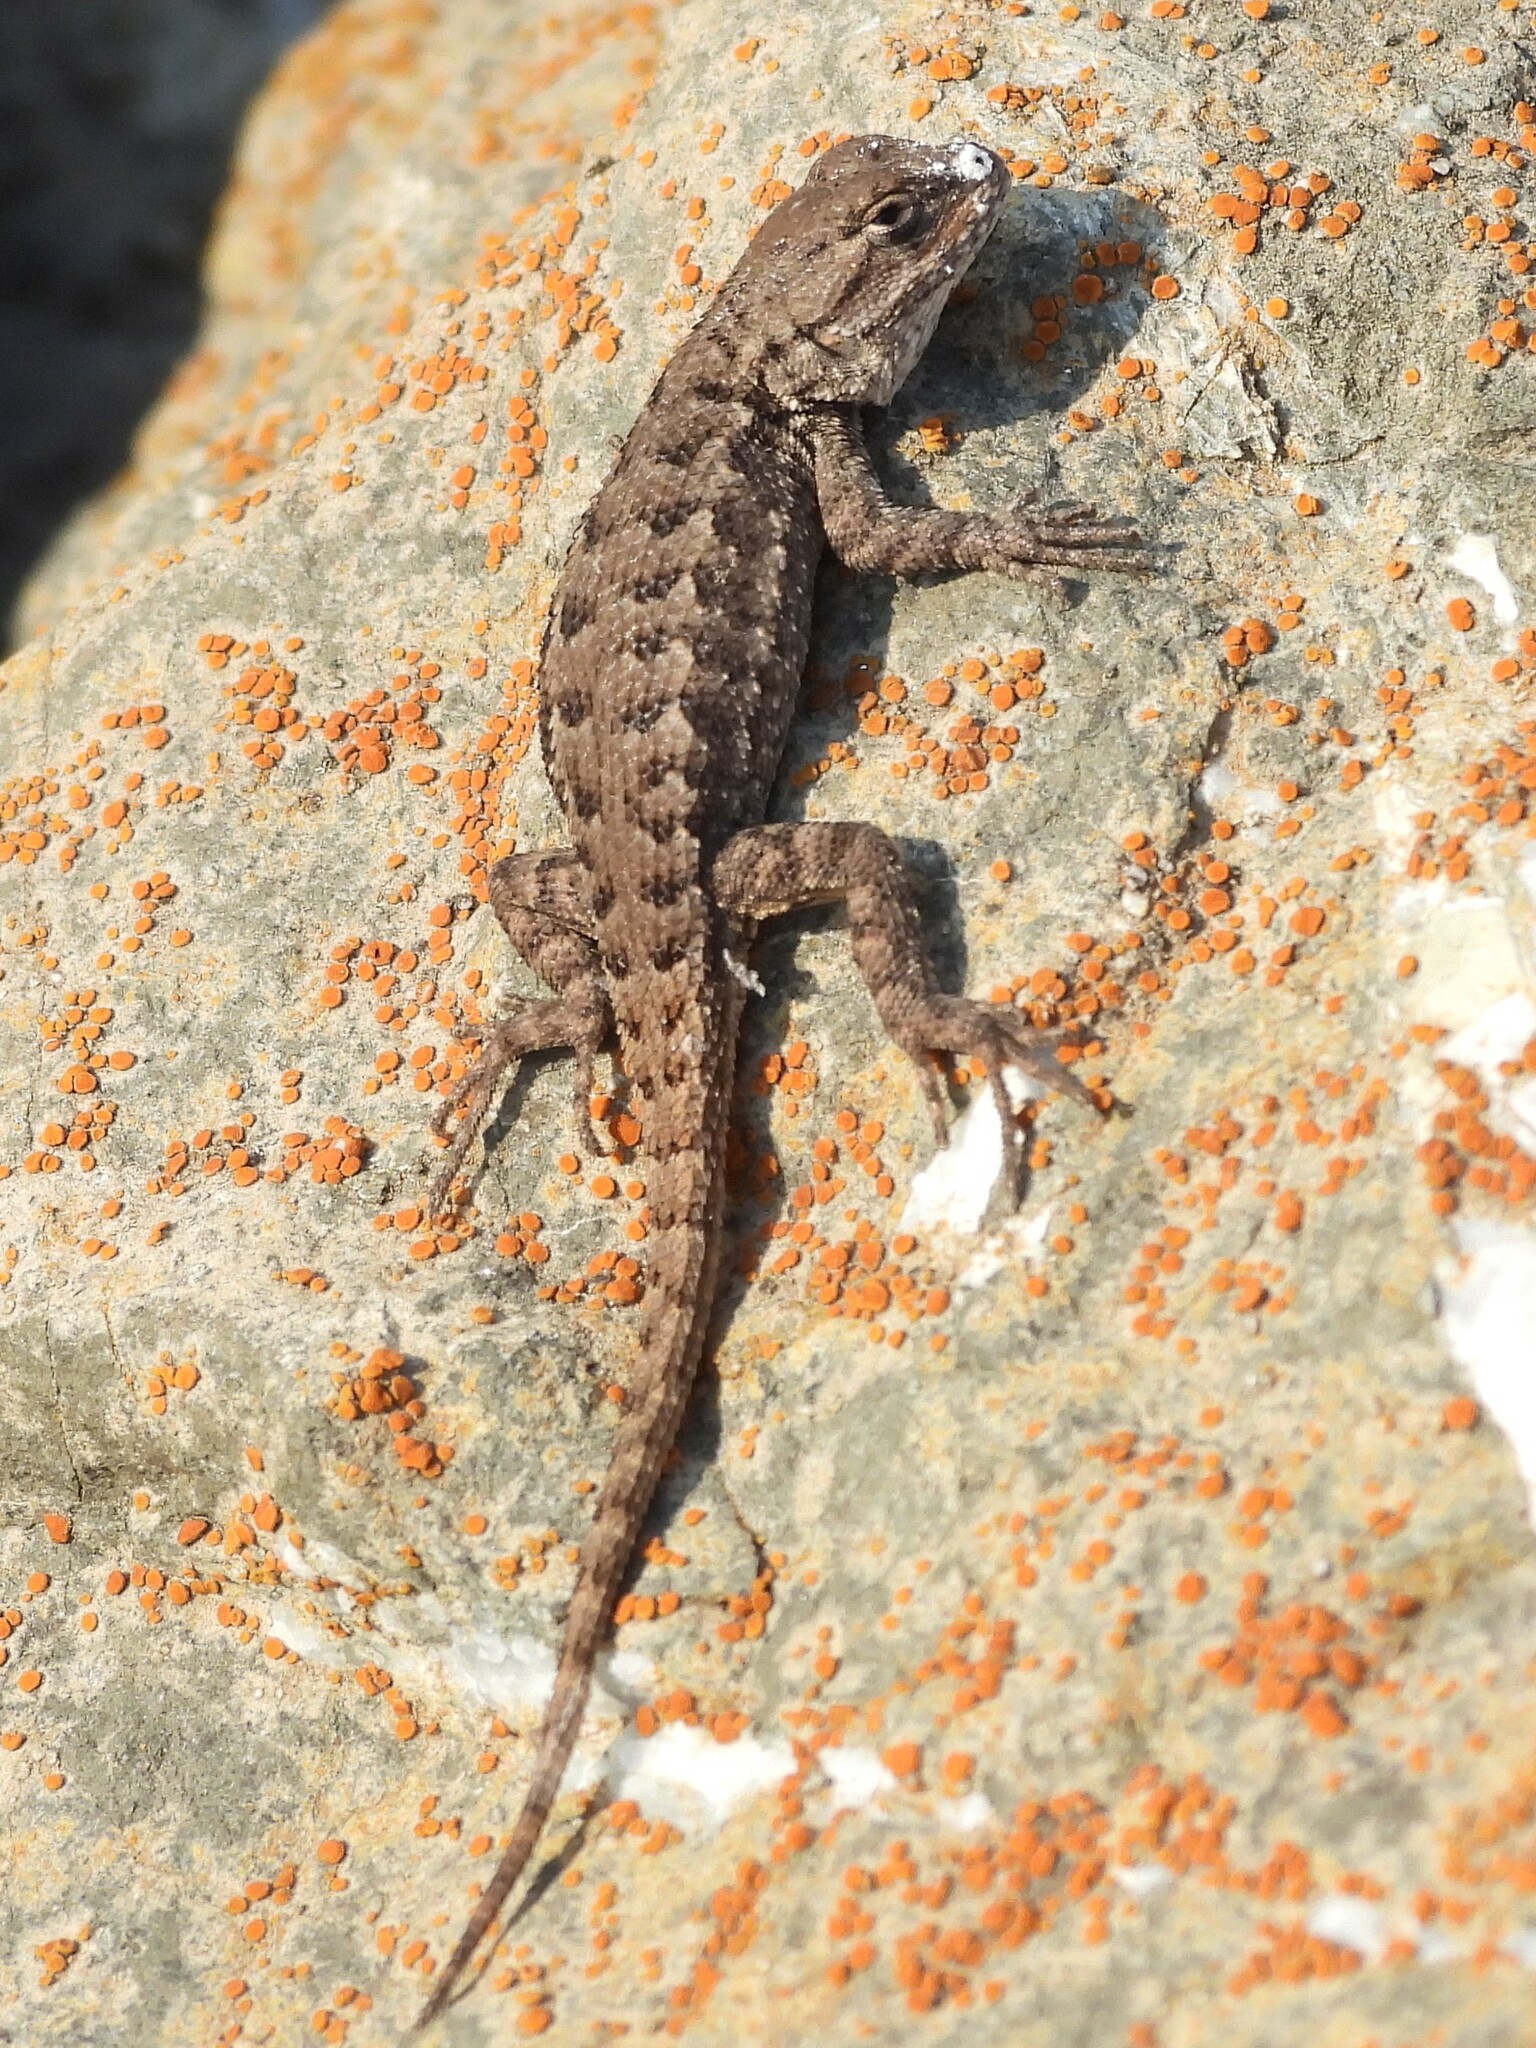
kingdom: Animalia
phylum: Chordata
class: Squamata
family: Phrynosomatidae
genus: Sceloporus
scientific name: Sceloporus occidentalis
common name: Western fence lizard
